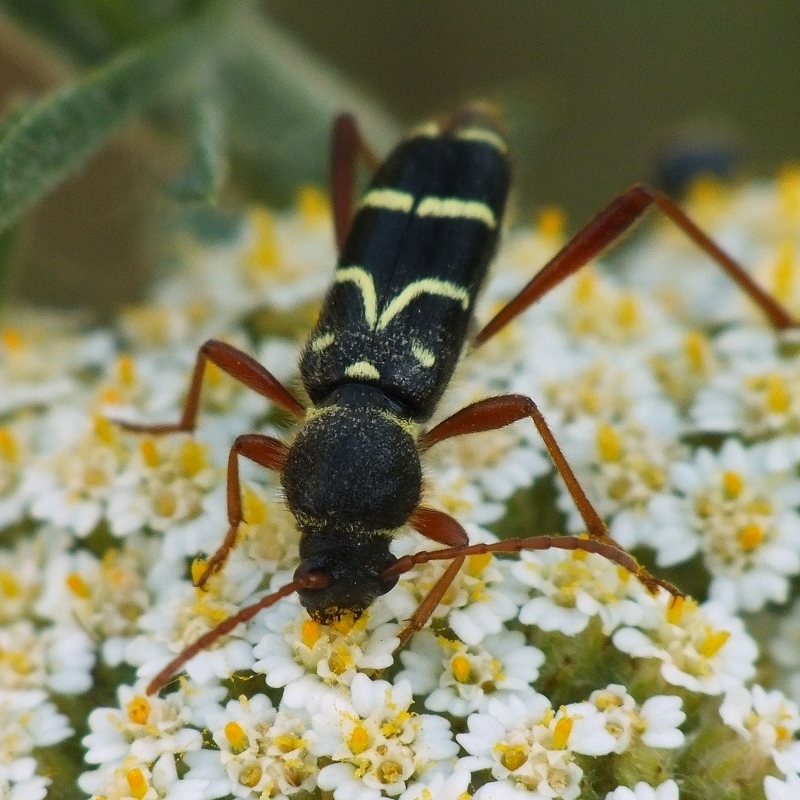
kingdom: Animalia
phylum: Arthropoda
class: Insecta
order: Coleoptera
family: Cerambycidae
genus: Clytus
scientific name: Clytus rhamni
